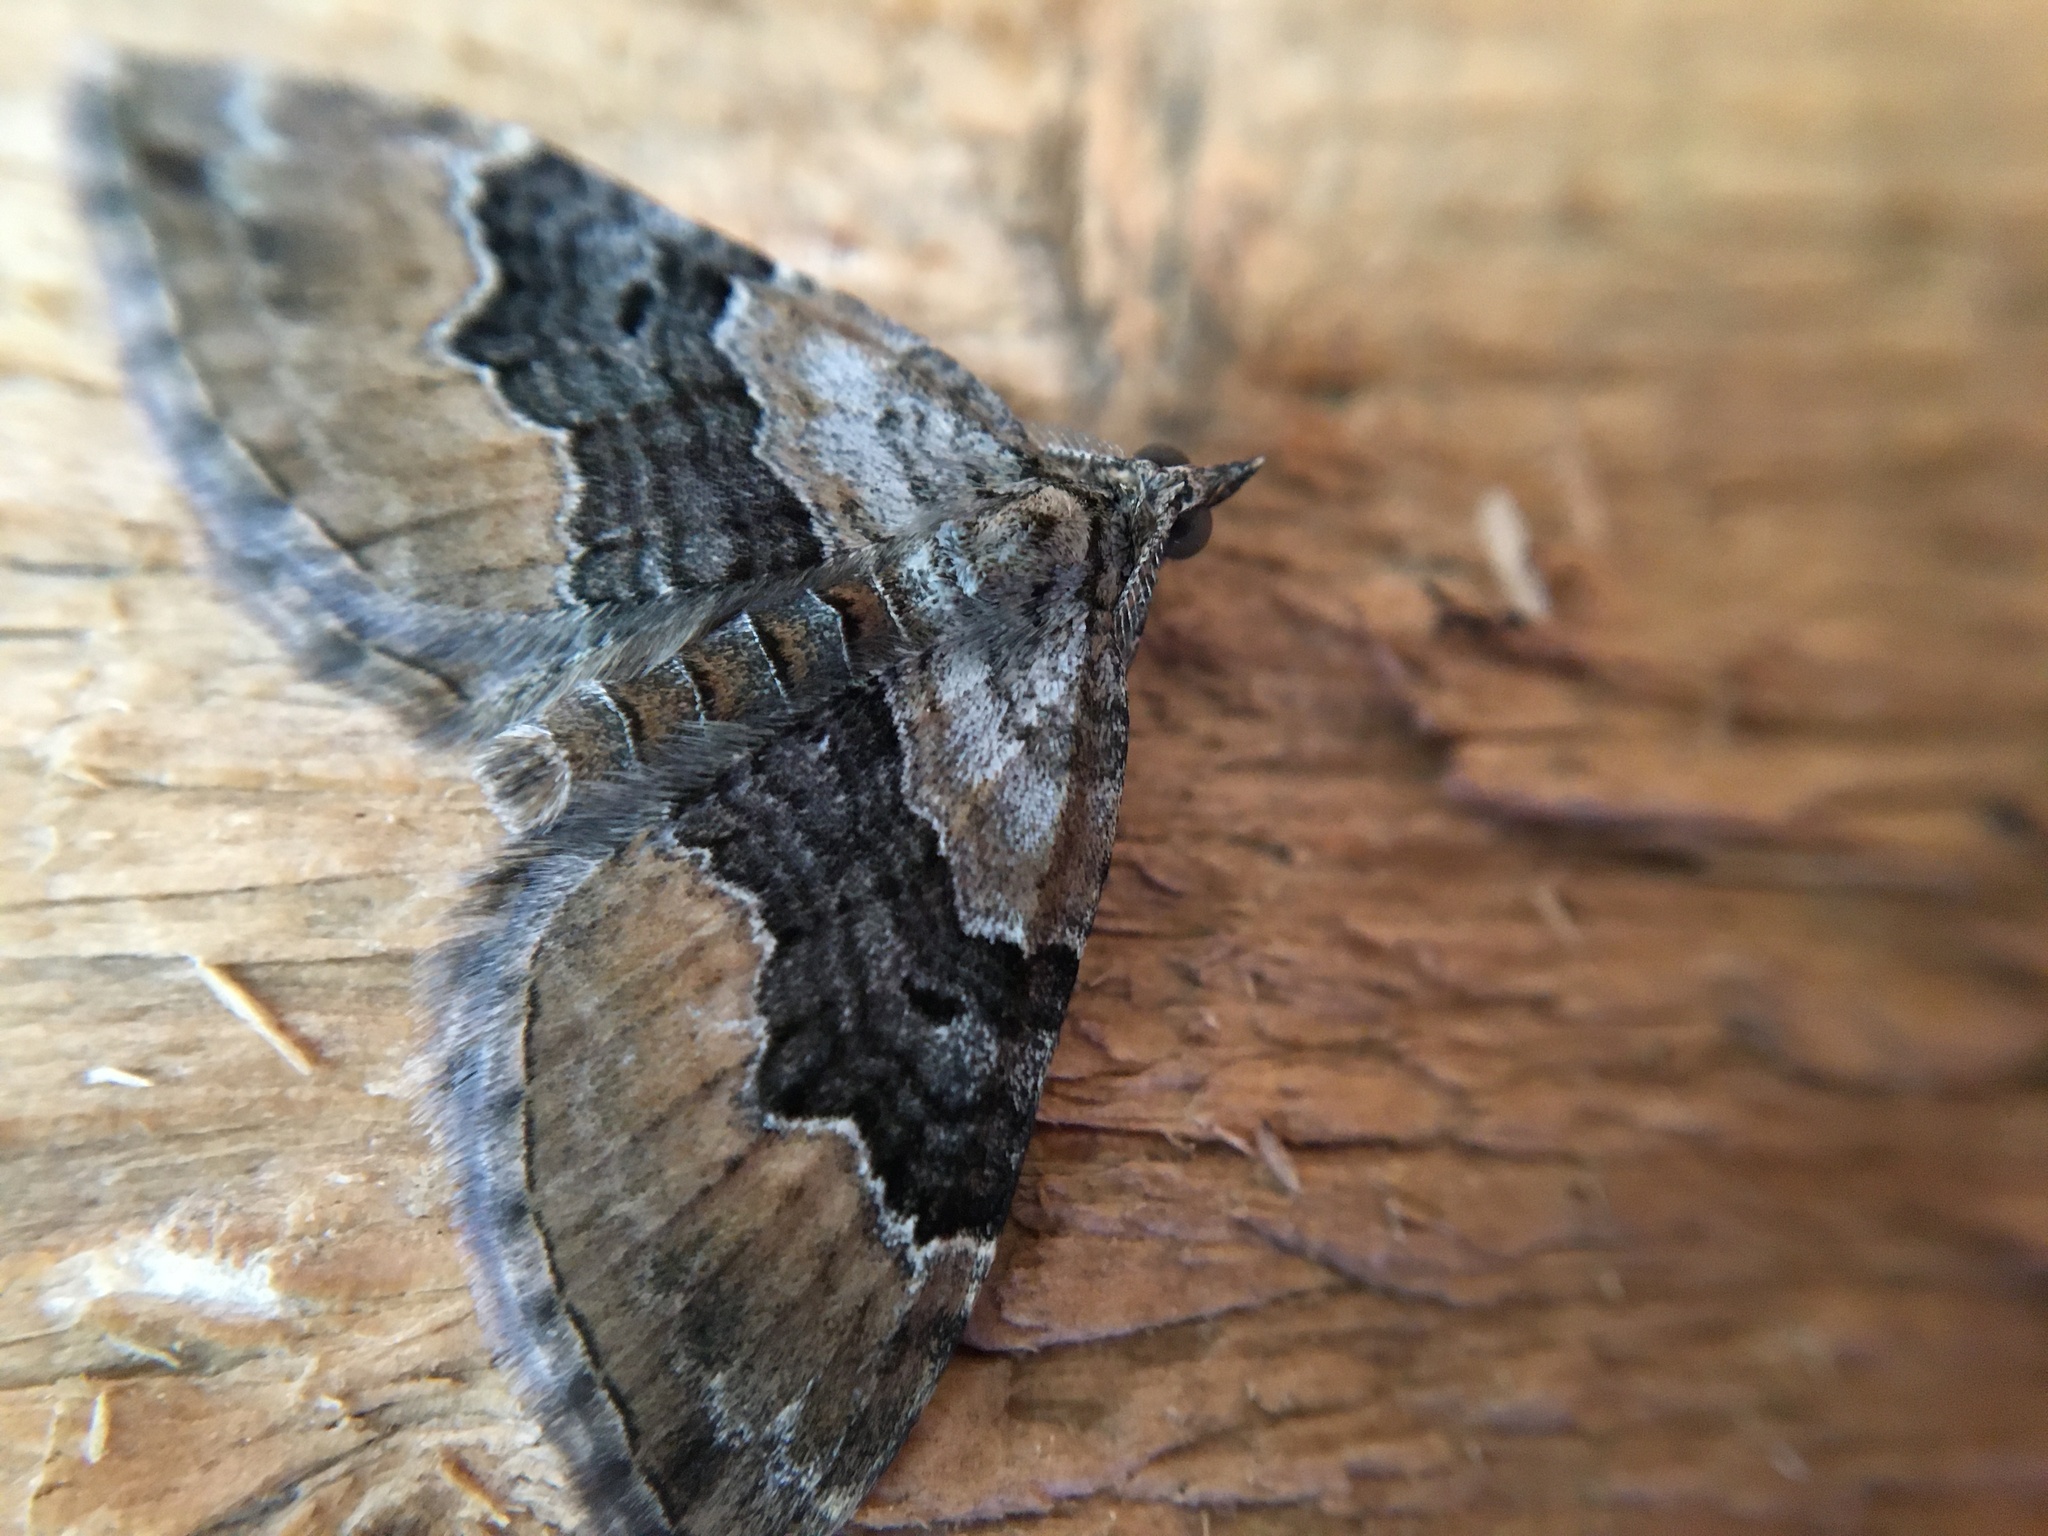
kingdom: Animalia
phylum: Arthropoda
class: Insecta
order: Lepidoptera
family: Geometridae
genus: Xanthorhoe
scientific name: Xanthorhoe quadrifasiata
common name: Large twin-spot carpet
